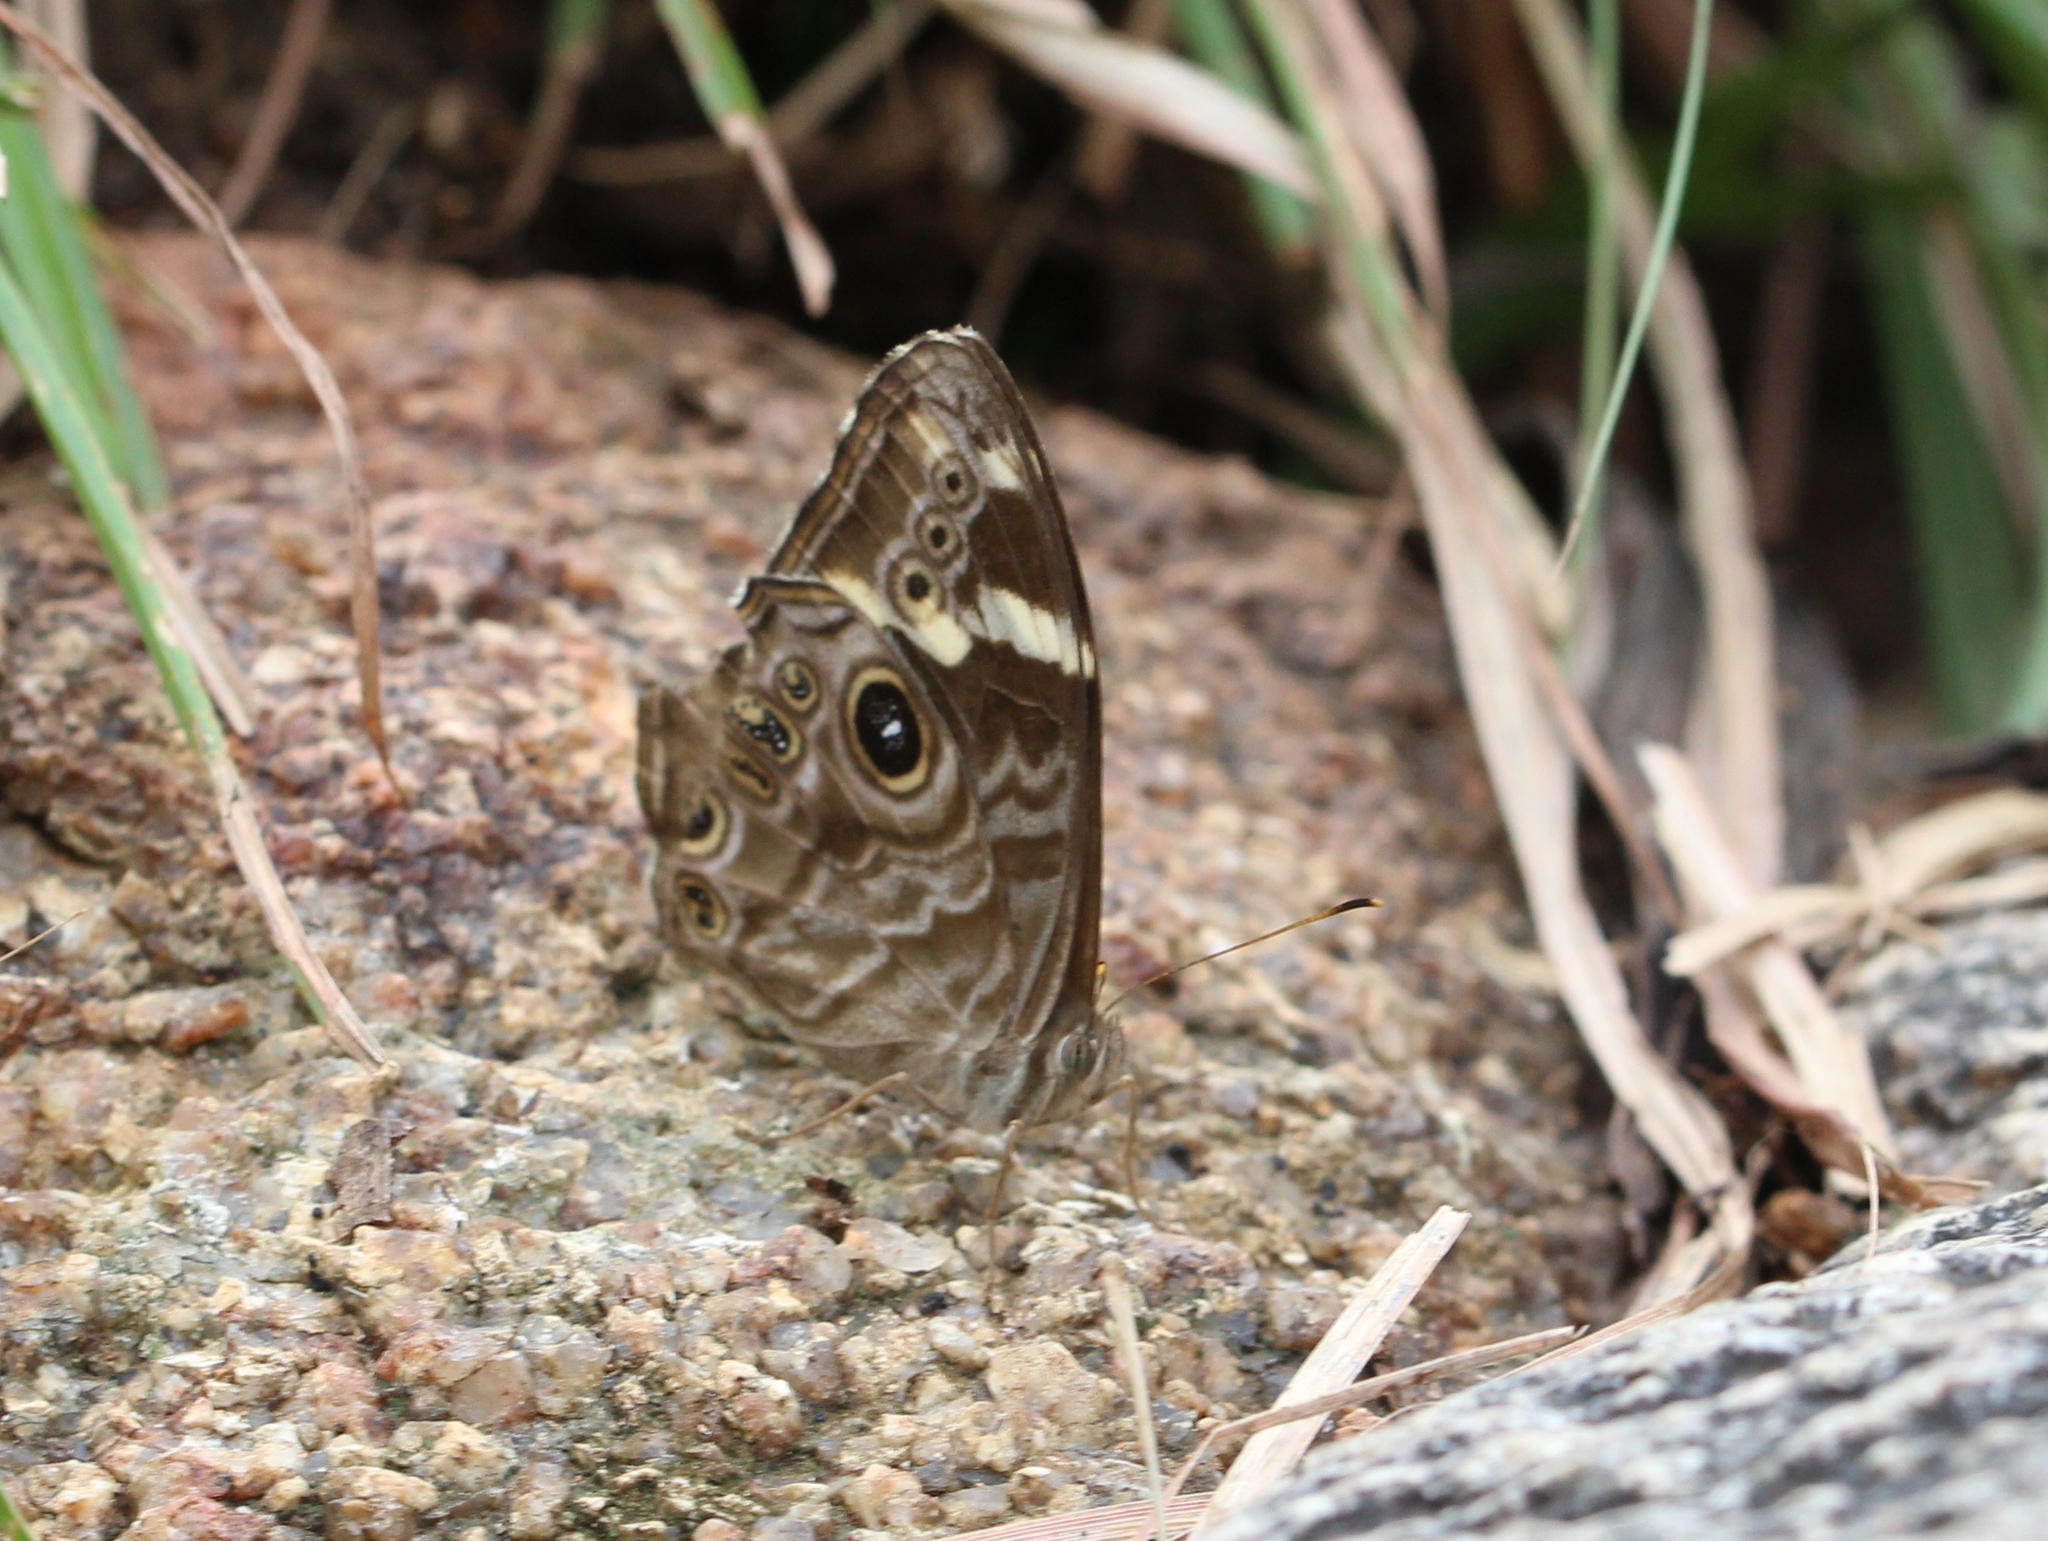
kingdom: Animalia
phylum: Arthropoda
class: Insecta
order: Lepidoptera
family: Nymphalidae
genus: Lethe
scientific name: Lethe rohria
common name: Common treebrown
